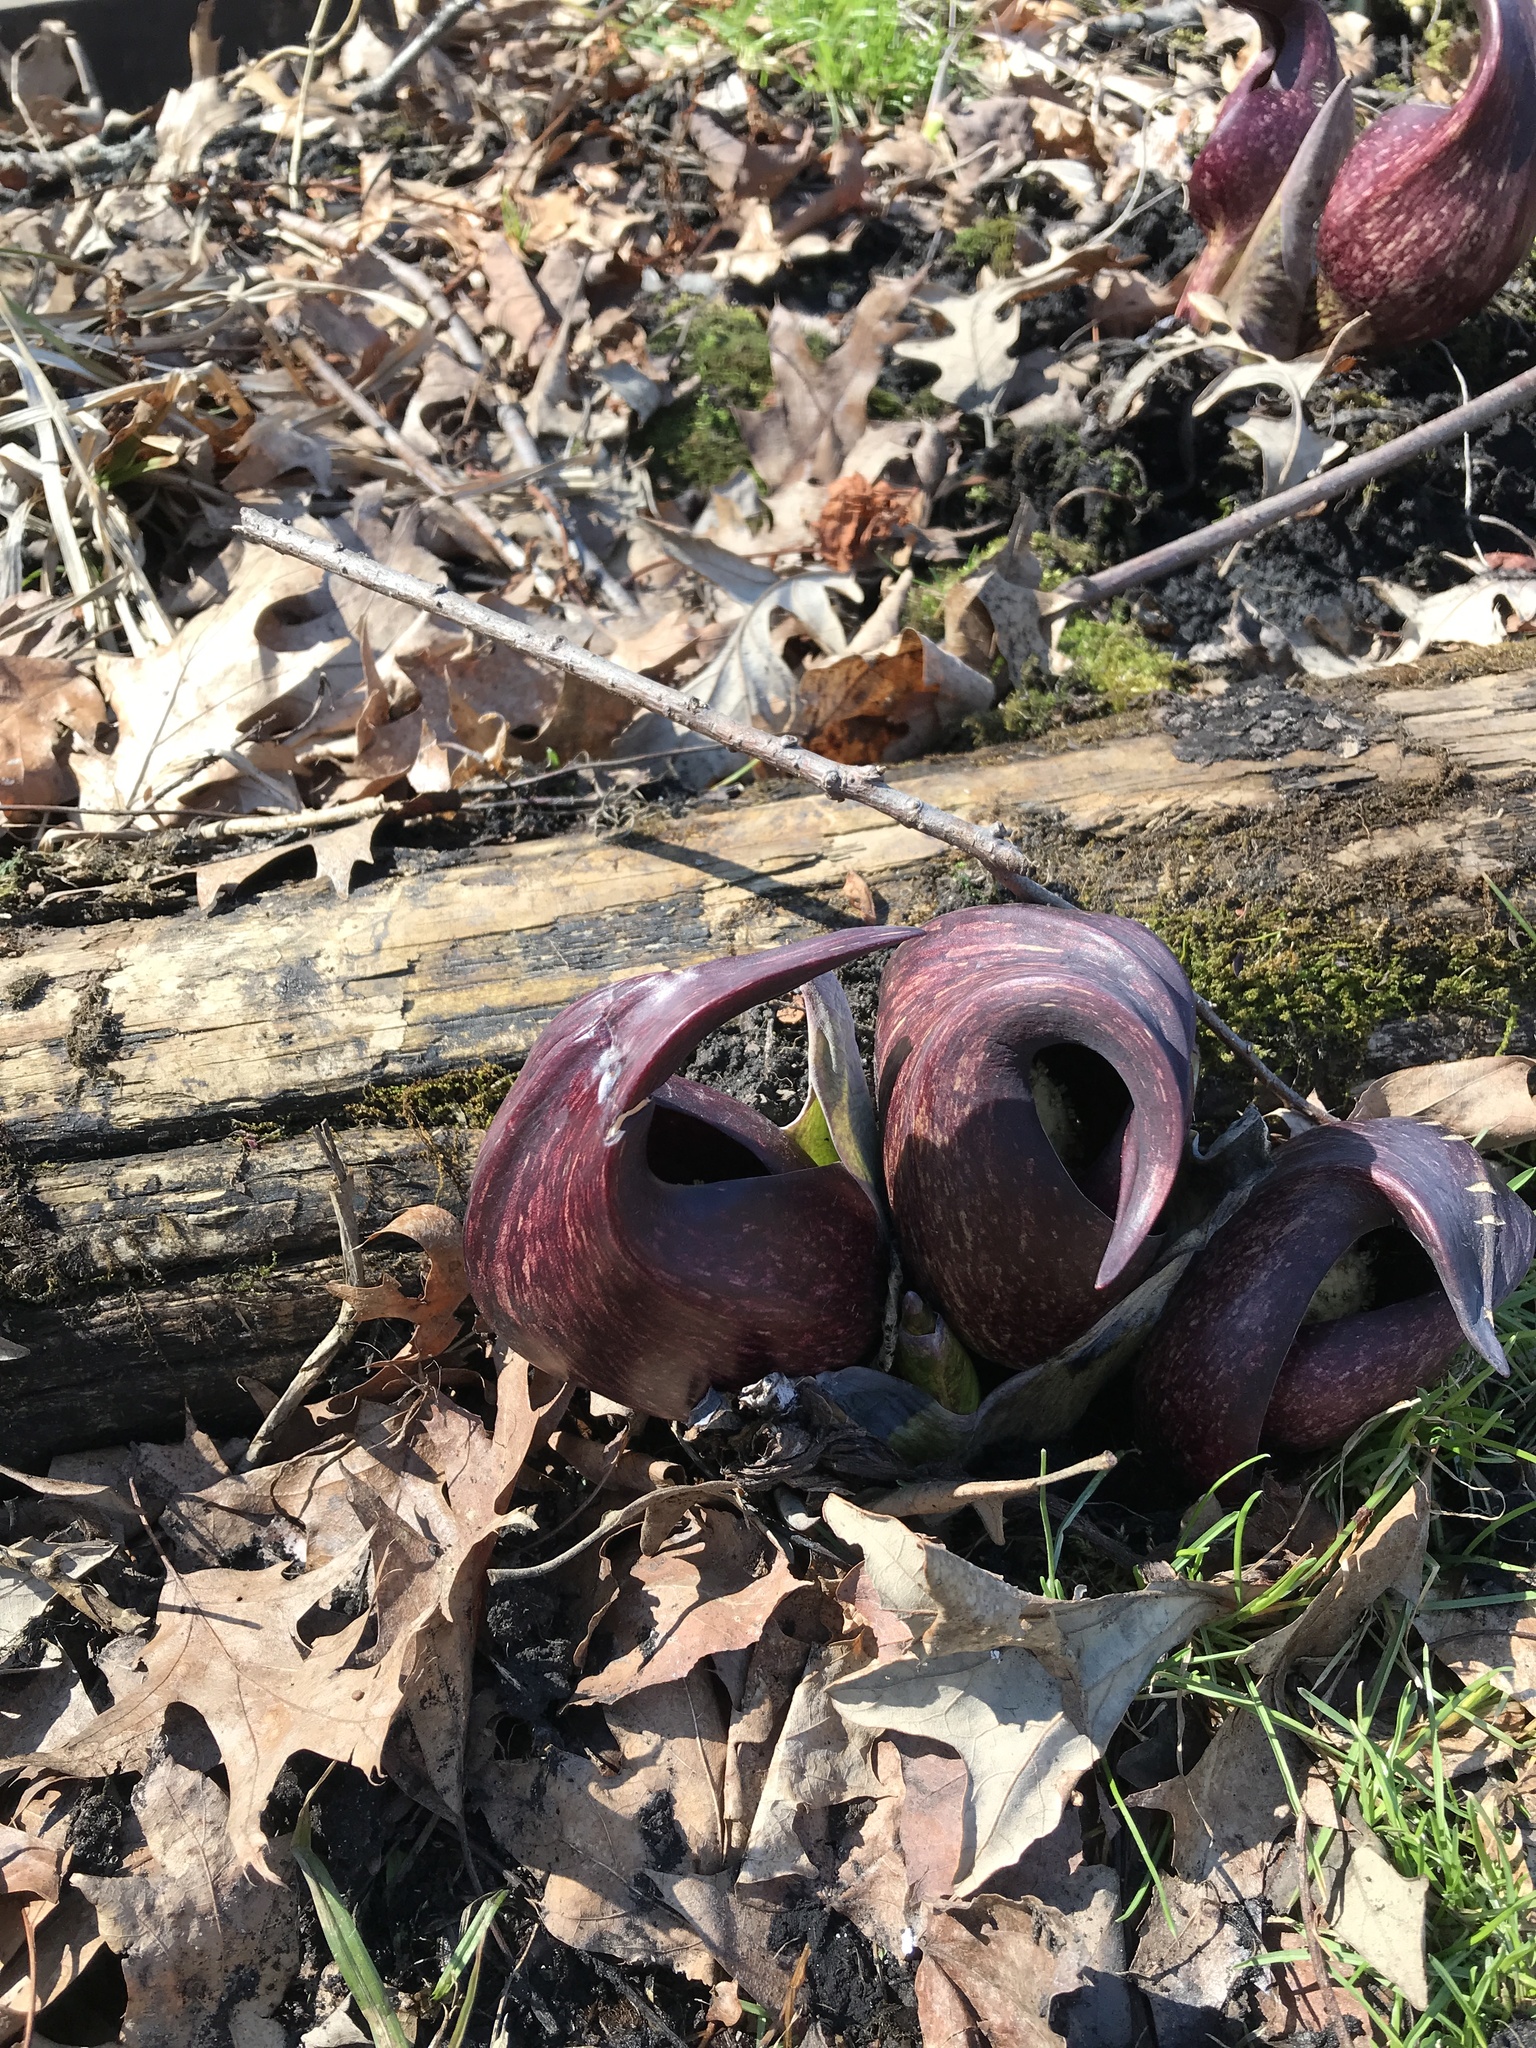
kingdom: Plantae
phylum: Tracheophyta
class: Liliopsida
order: Alismatales
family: Araceae
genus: Symplocarpus
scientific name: Symplocarpus foetidus
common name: Eastern skunk cabbage
